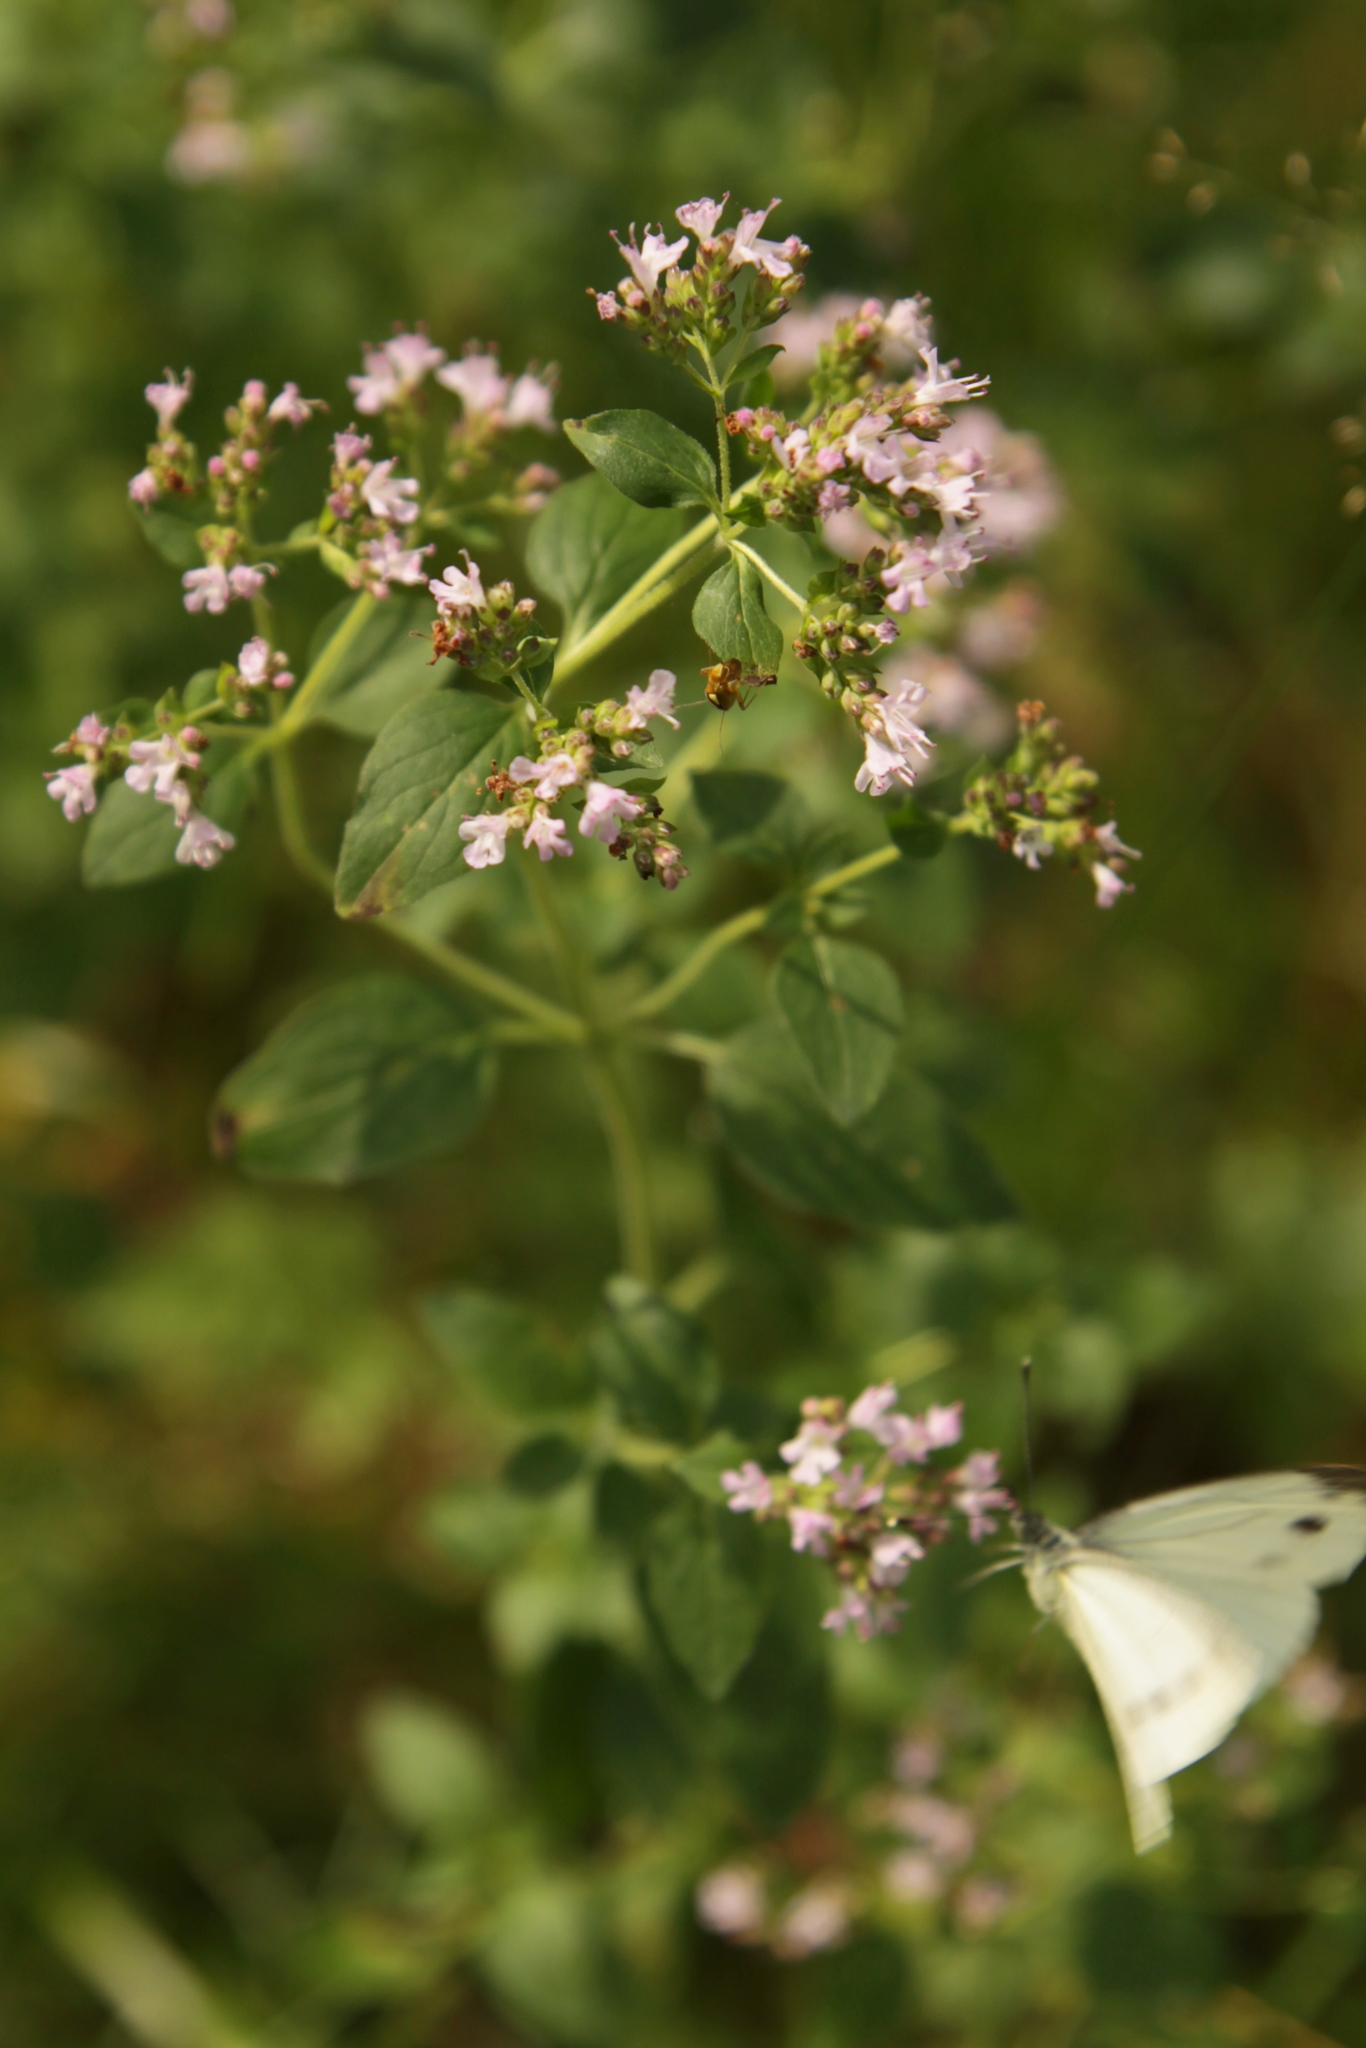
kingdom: Plantae
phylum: Tracheophyta
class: Magnoliopsida
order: Lamiales
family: Lamiaceae
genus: Origanum
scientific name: Origanum vulgare
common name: Wild marjoram
